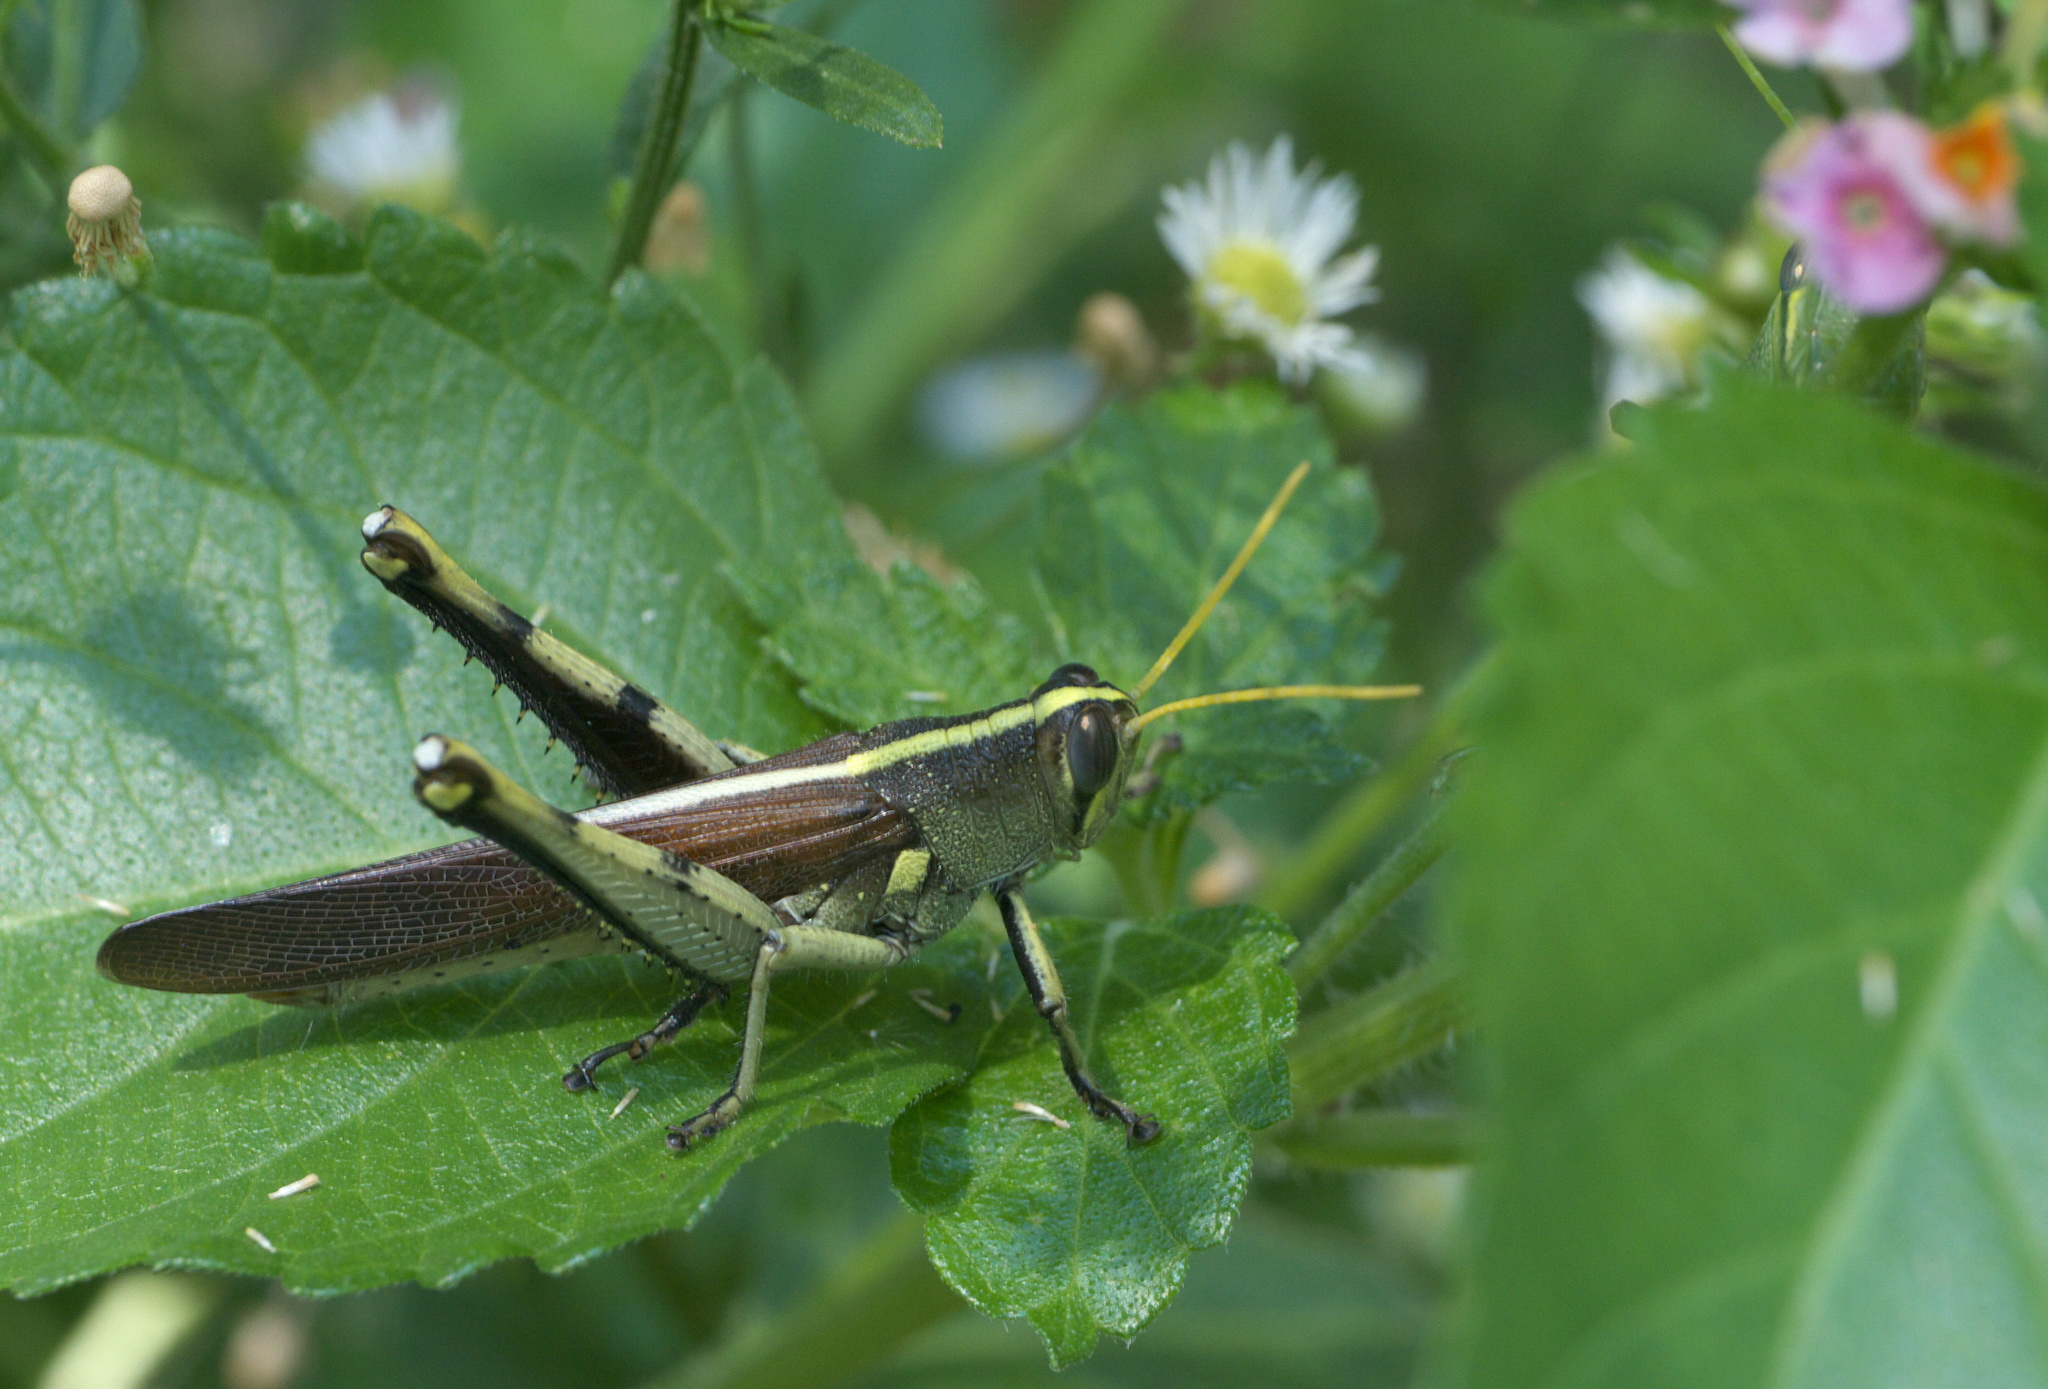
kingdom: Animalia
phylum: Arthropoda
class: Insecta
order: Orthoptera
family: Acrididae
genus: Schistocerca
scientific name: Schistocerca obscura
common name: Obscure bird grasshopper
